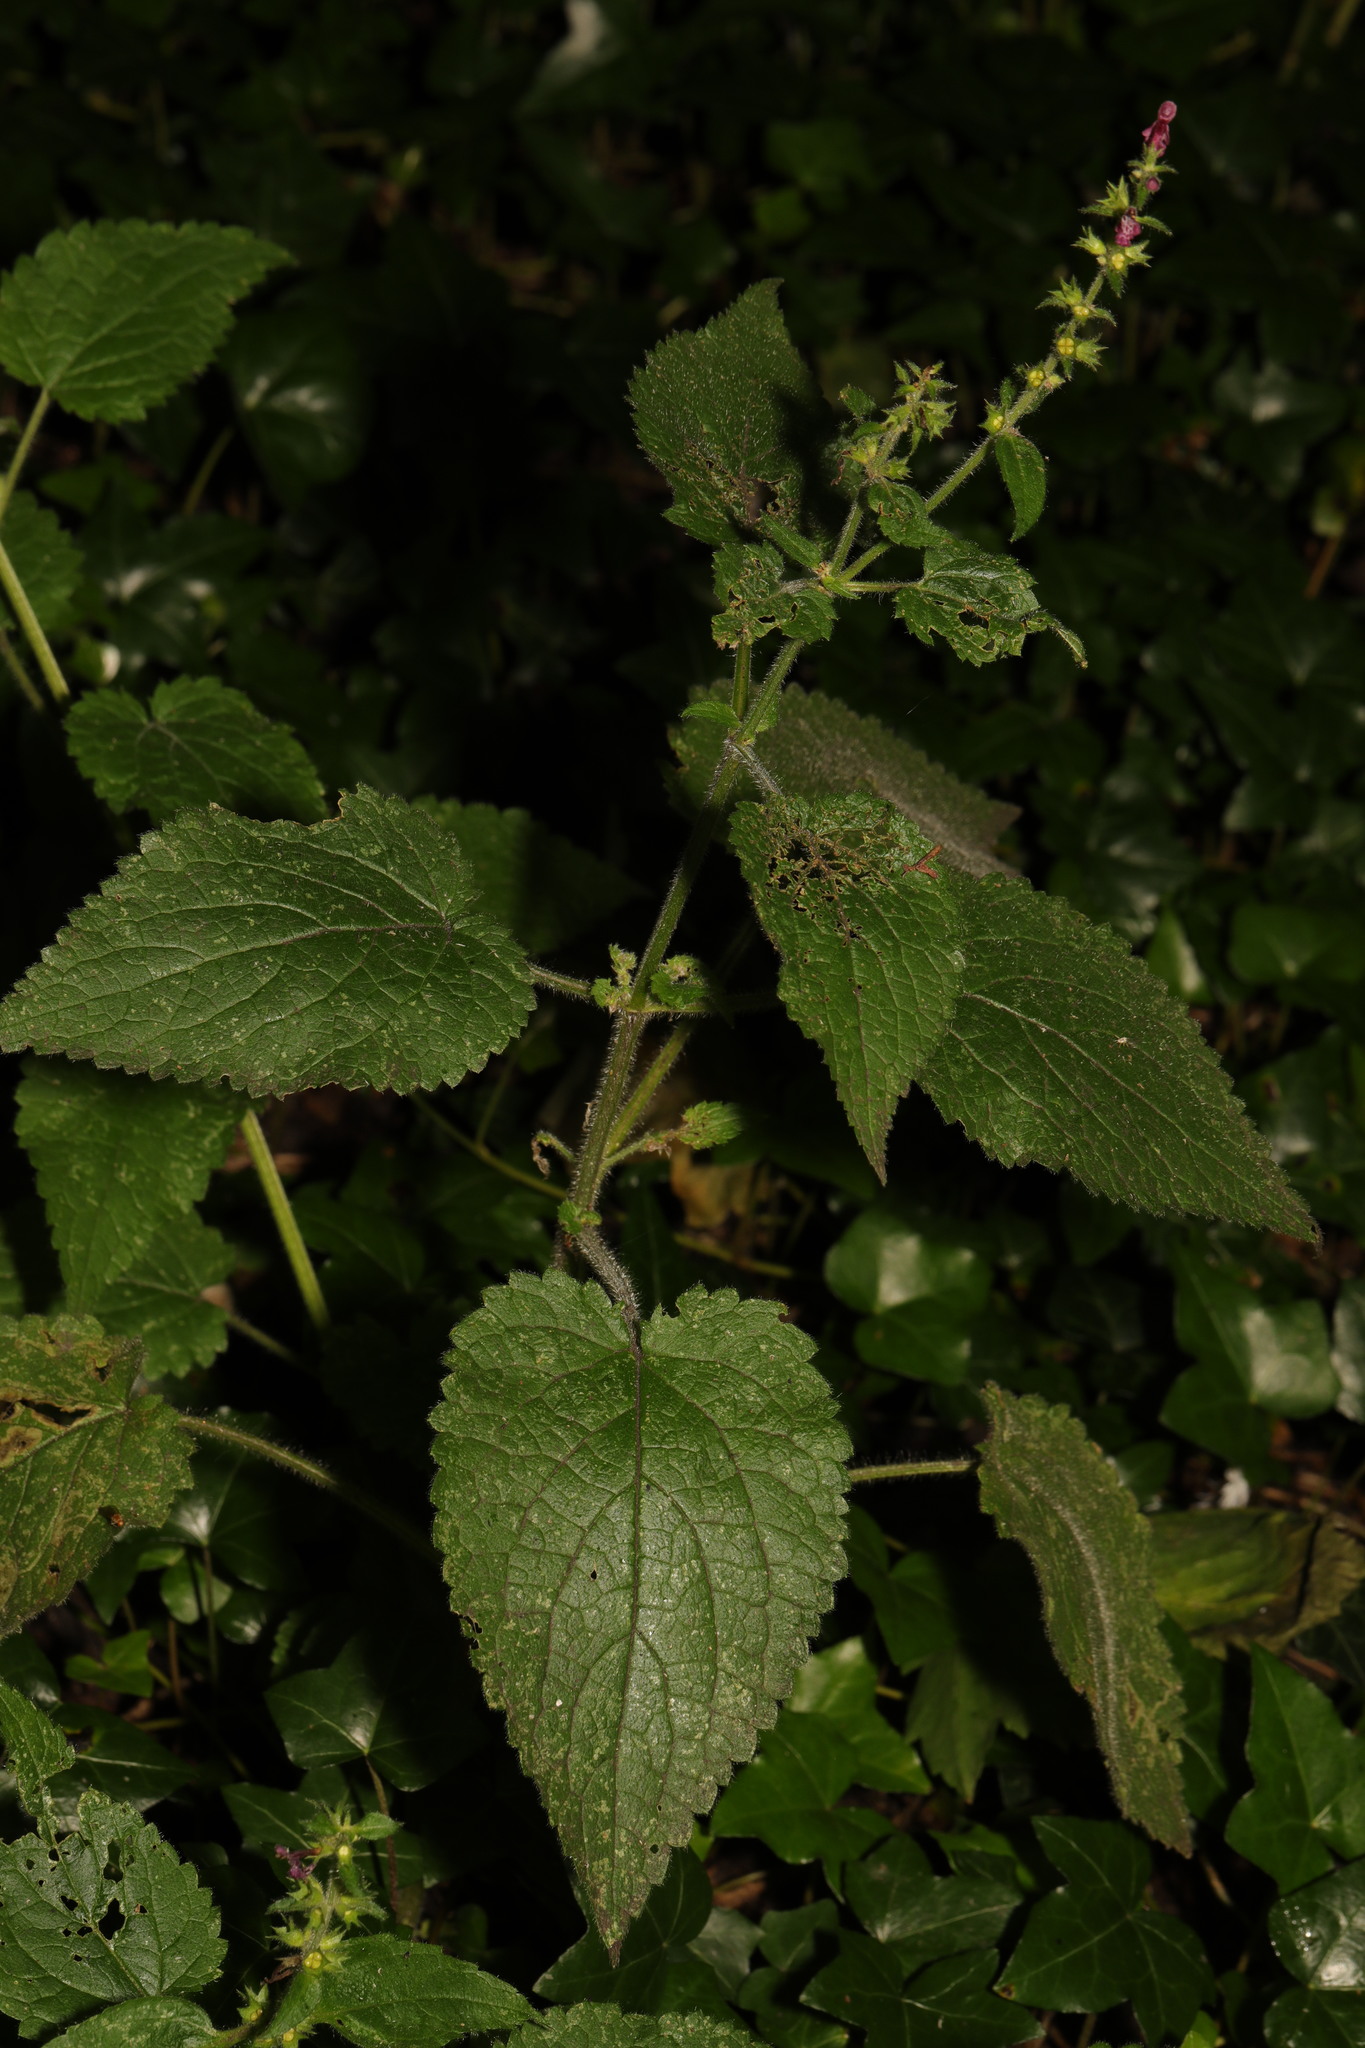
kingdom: Plantae
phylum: Tracheophyta
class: Magnoliopsida
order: Lamiales
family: Lamiaceae
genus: Stachys
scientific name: Stachys sylvatica
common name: Hedge woundwort
